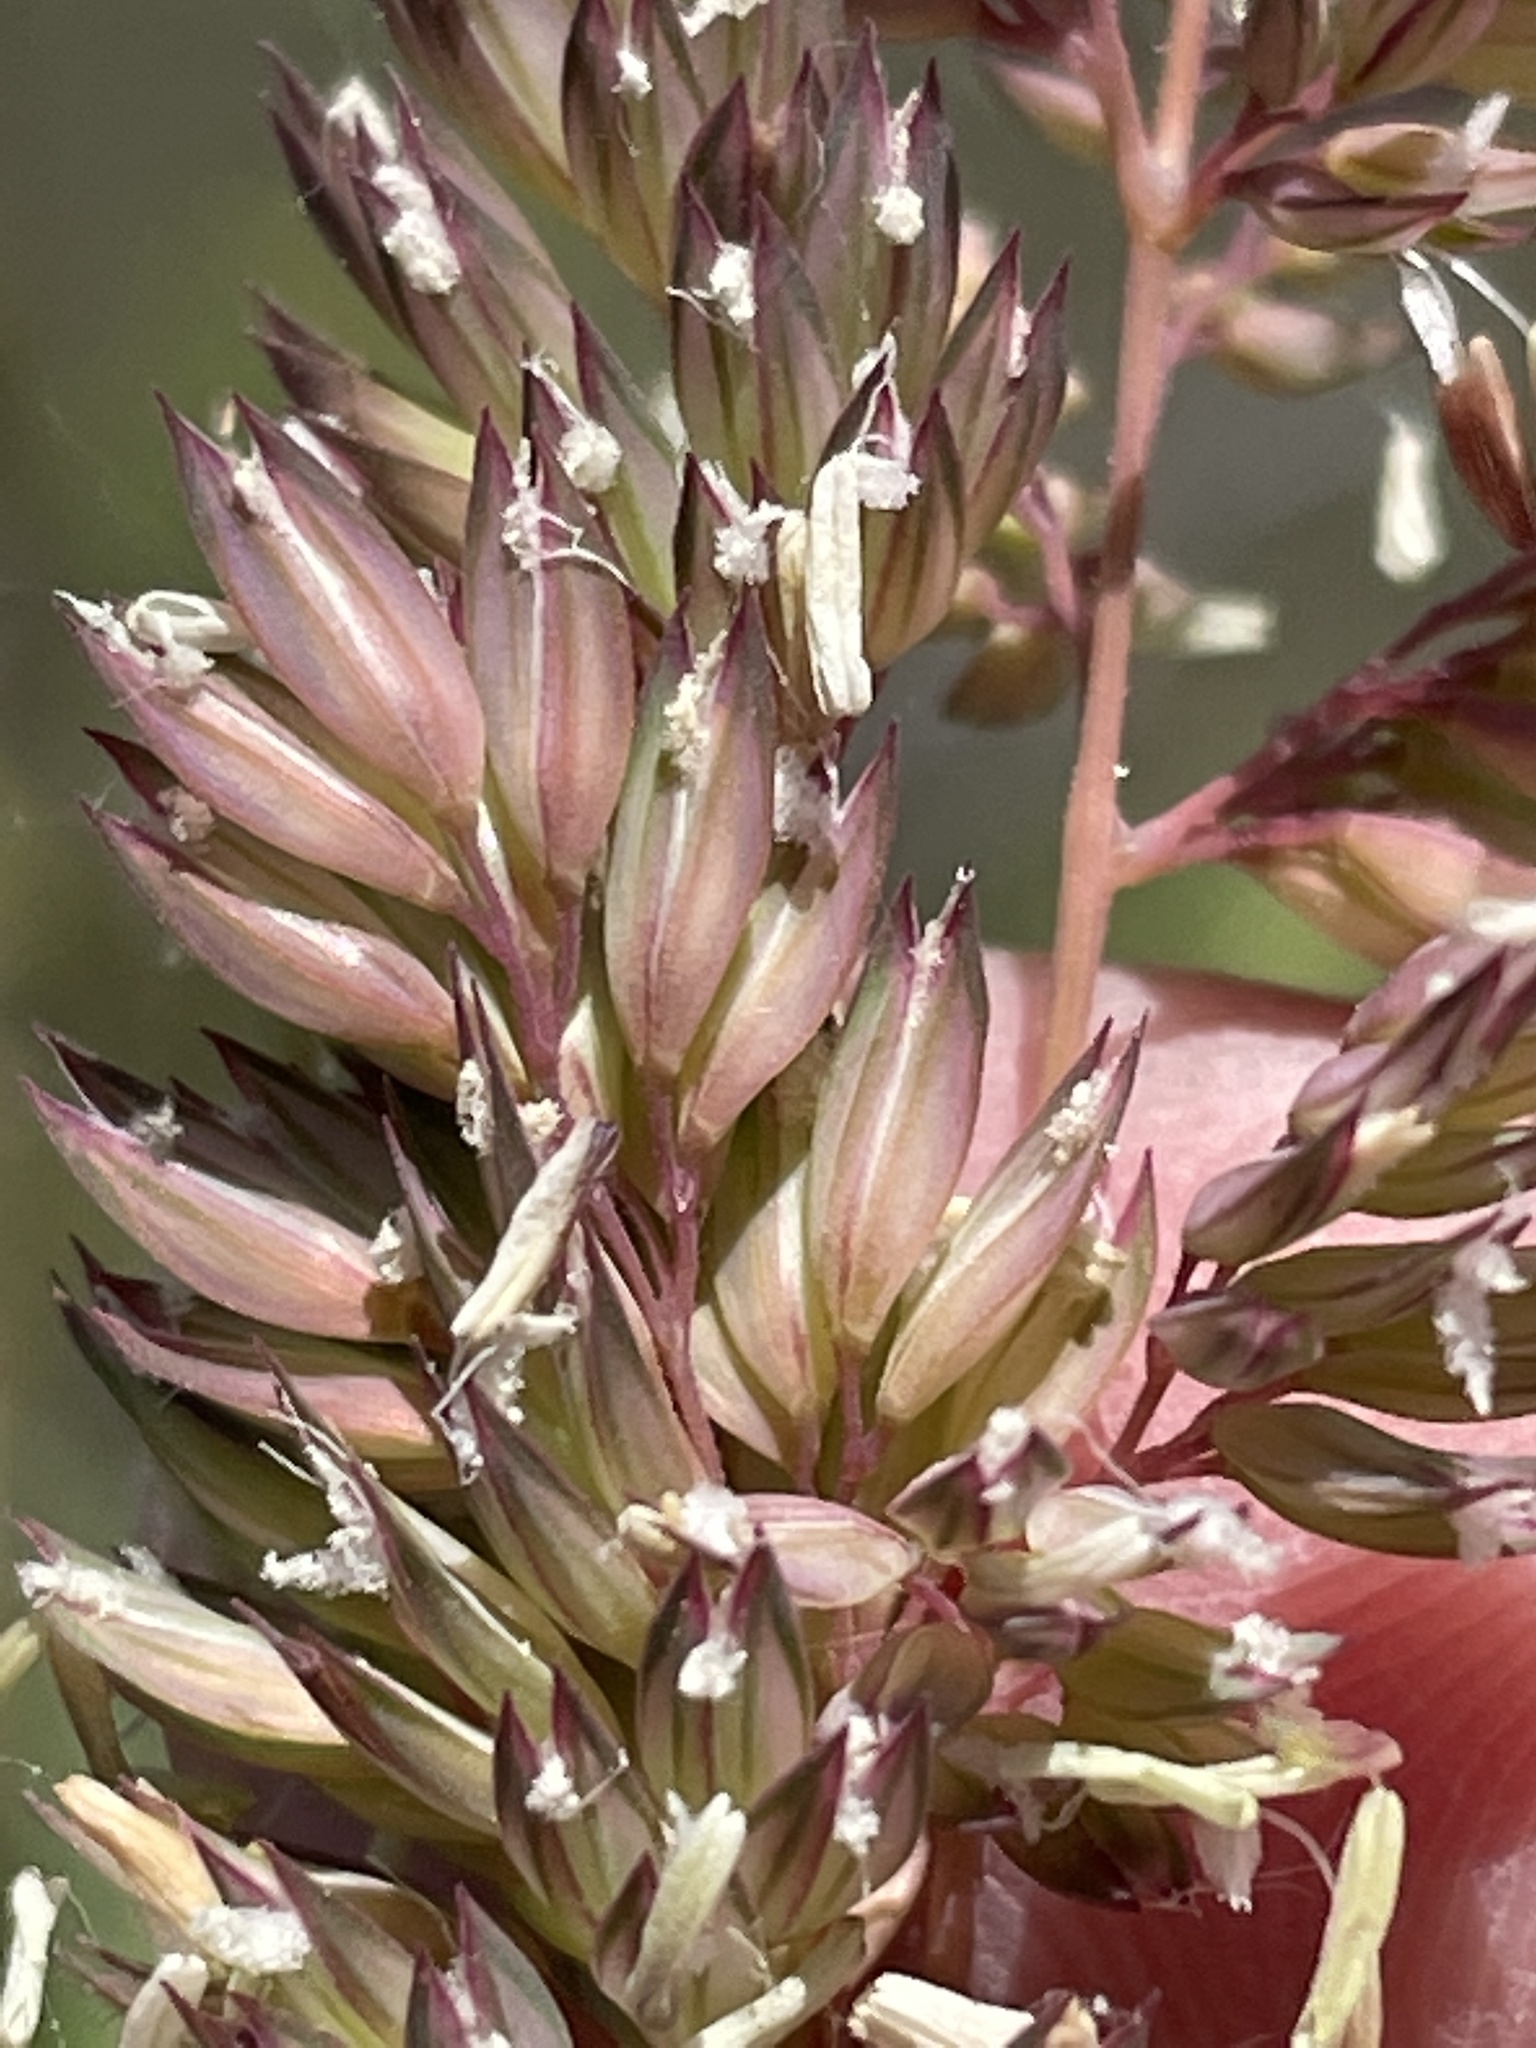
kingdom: Plantae
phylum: Tracheophyta
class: Liliopsida
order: Poales
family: Poaceae
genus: Phalaris
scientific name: Phalaris arundinacea
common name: Reed canary-grass
